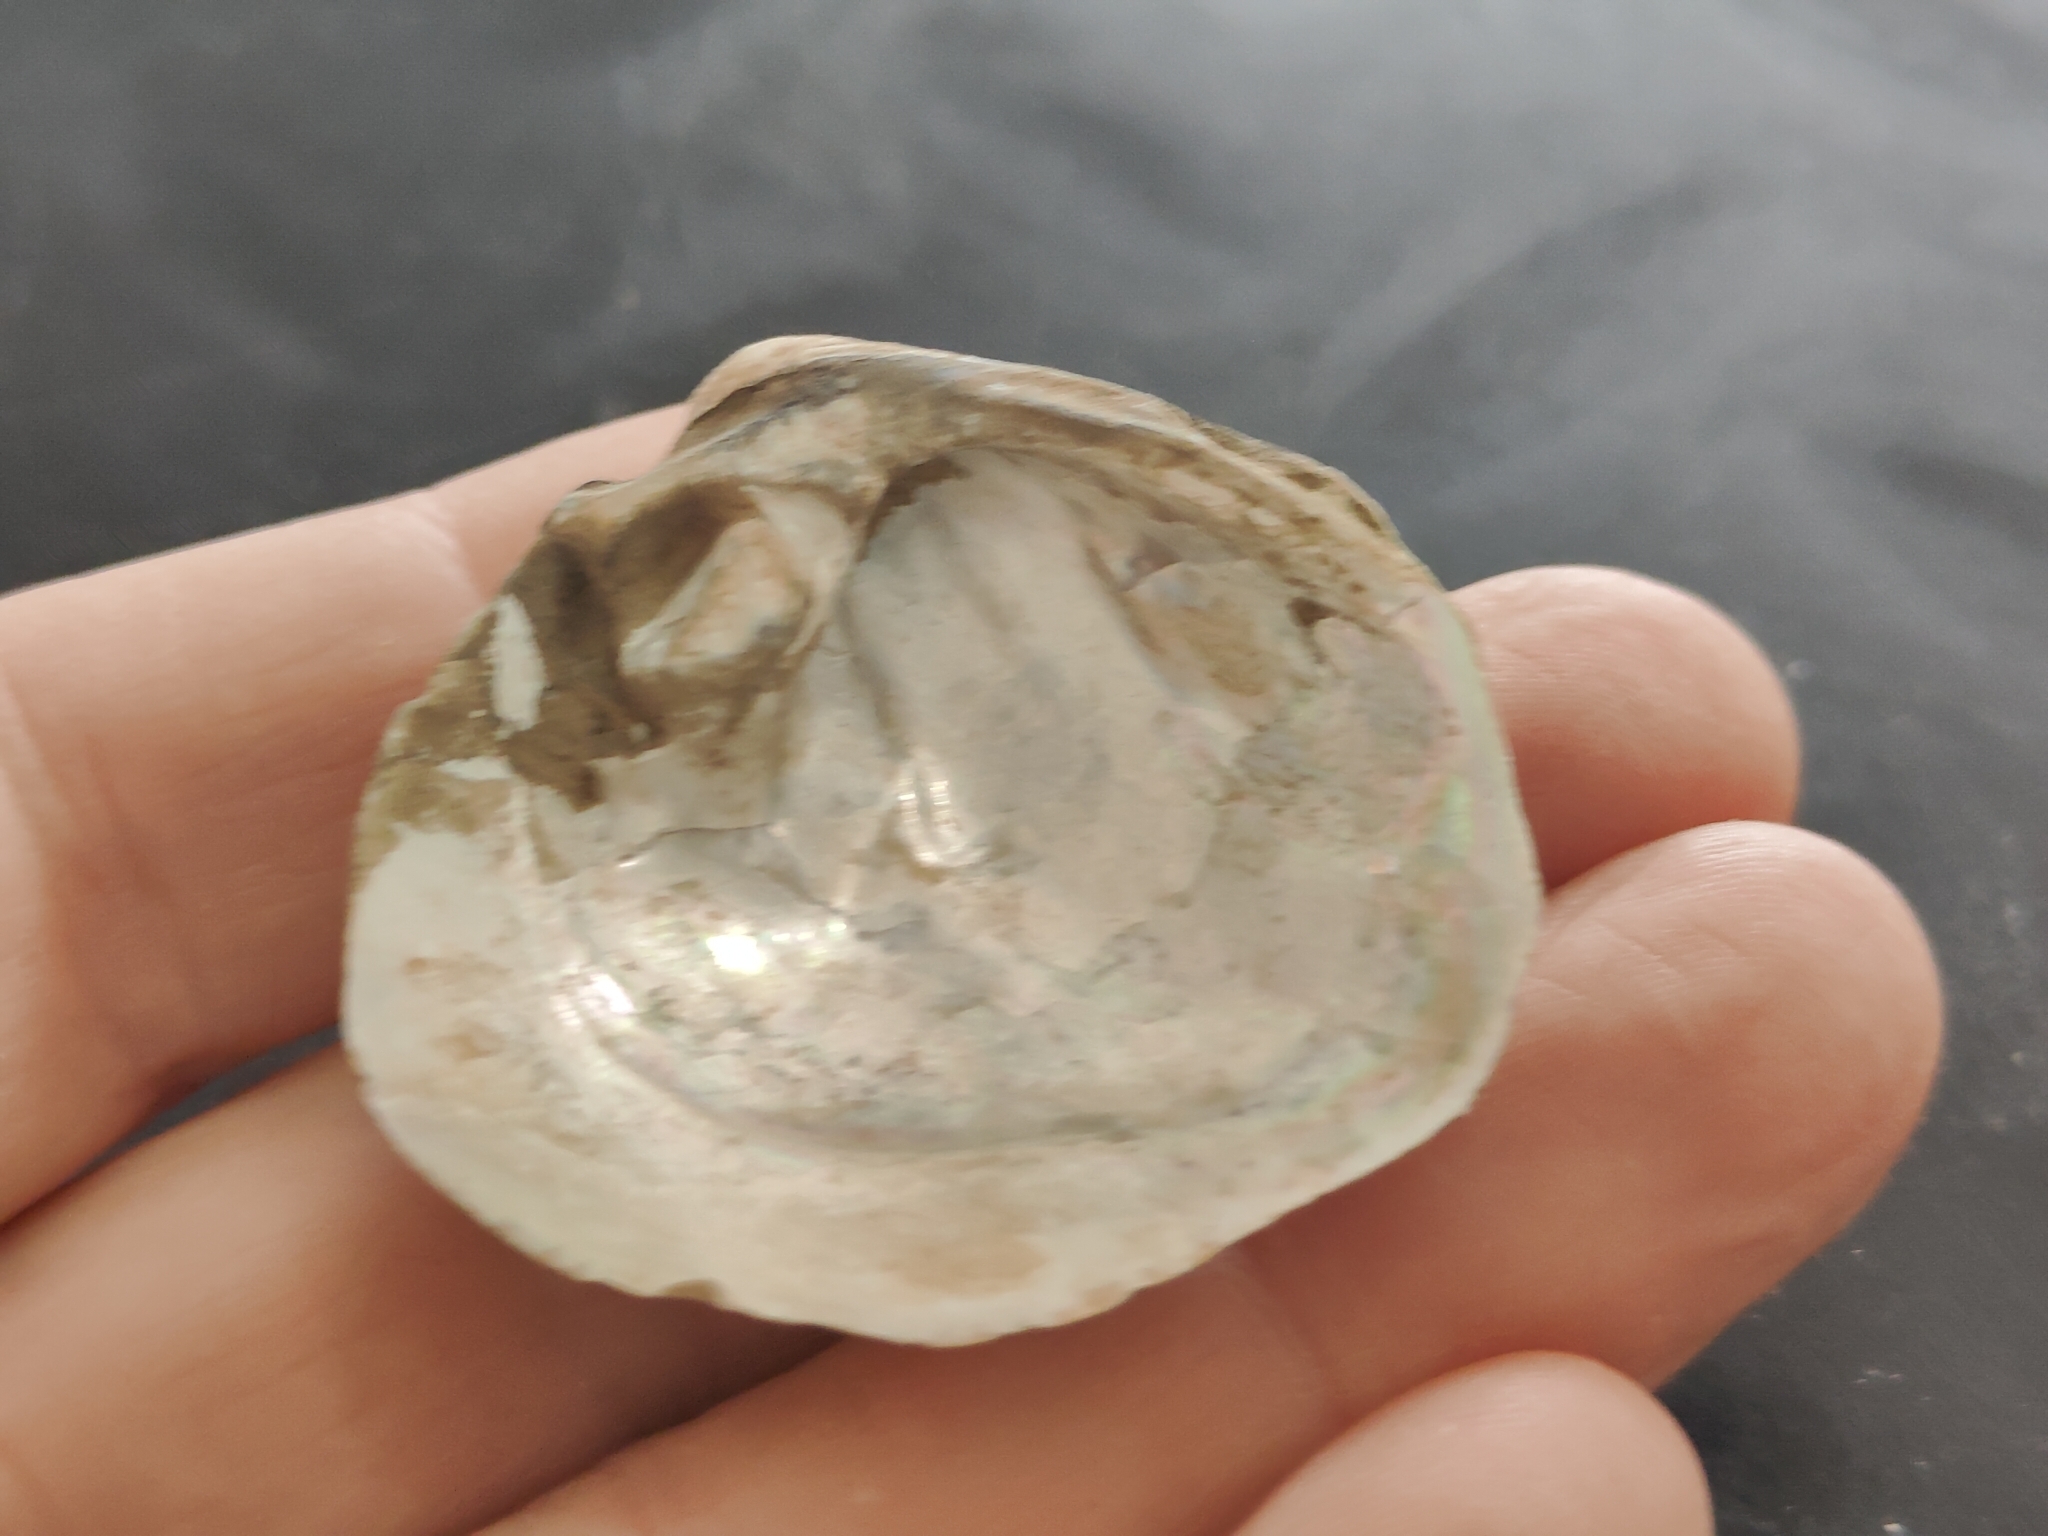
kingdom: Animalia
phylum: Mollusca
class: Bivalvia
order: Unionida
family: Unionidae
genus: Cyclonaias
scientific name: Cyclonaias pustulosa
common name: Pimpleback
